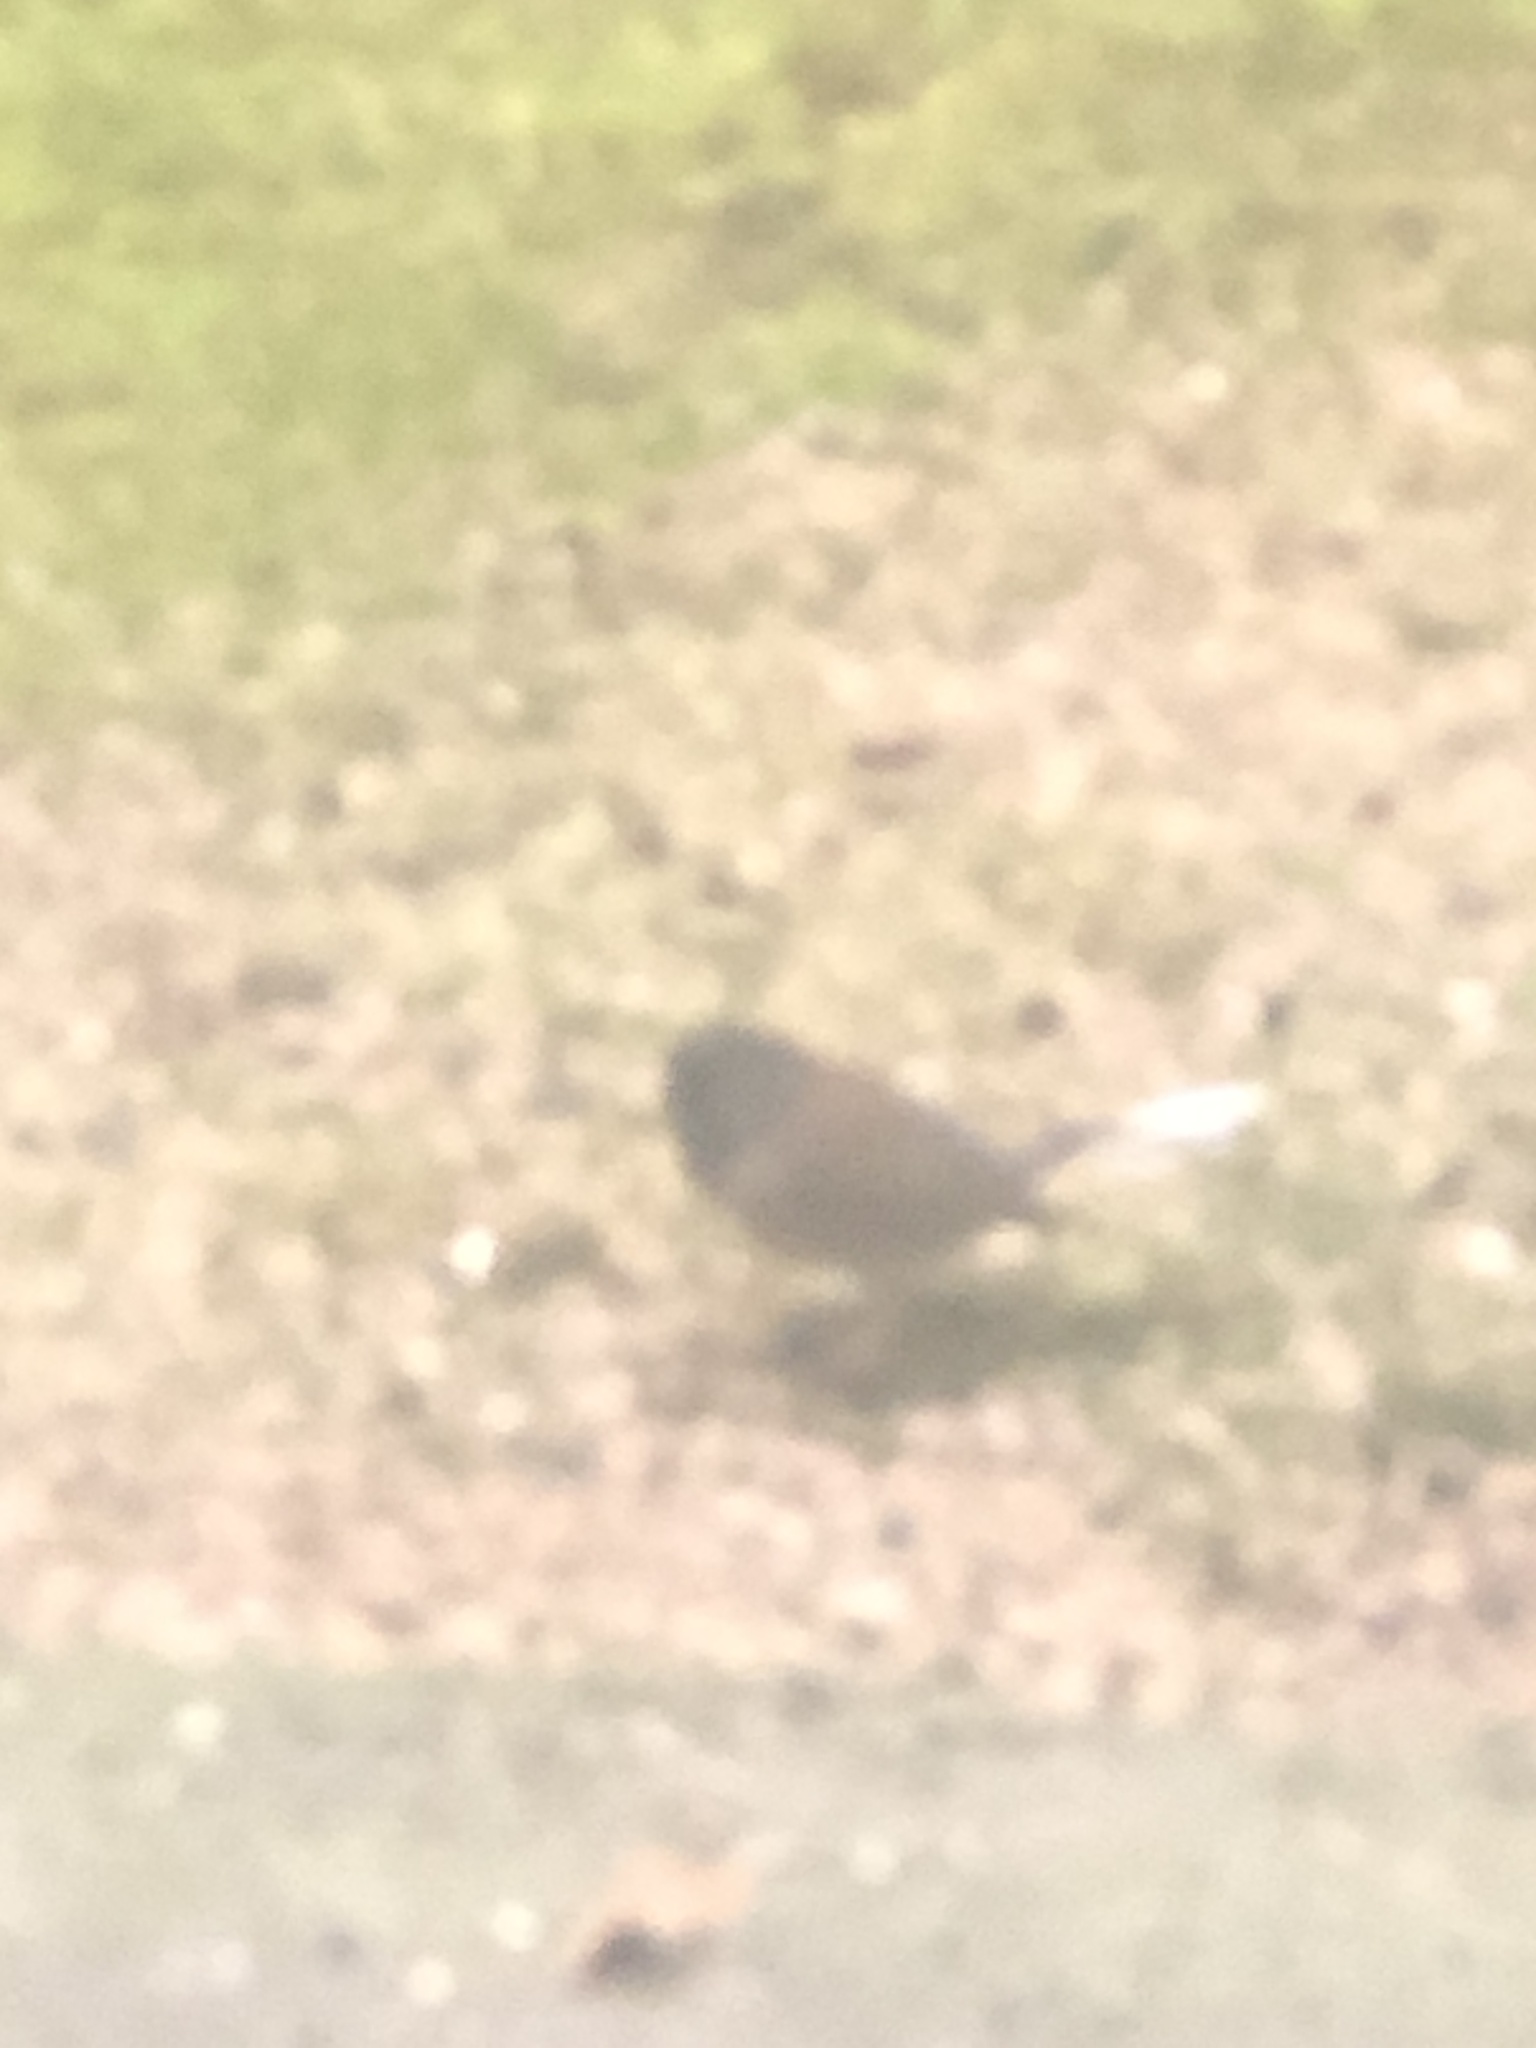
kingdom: Animalia
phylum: Chordata
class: Aves
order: Passeriformes
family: Passerellidae
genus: Junco
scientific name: Junco hyemalis
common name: Dark-eyed junco
